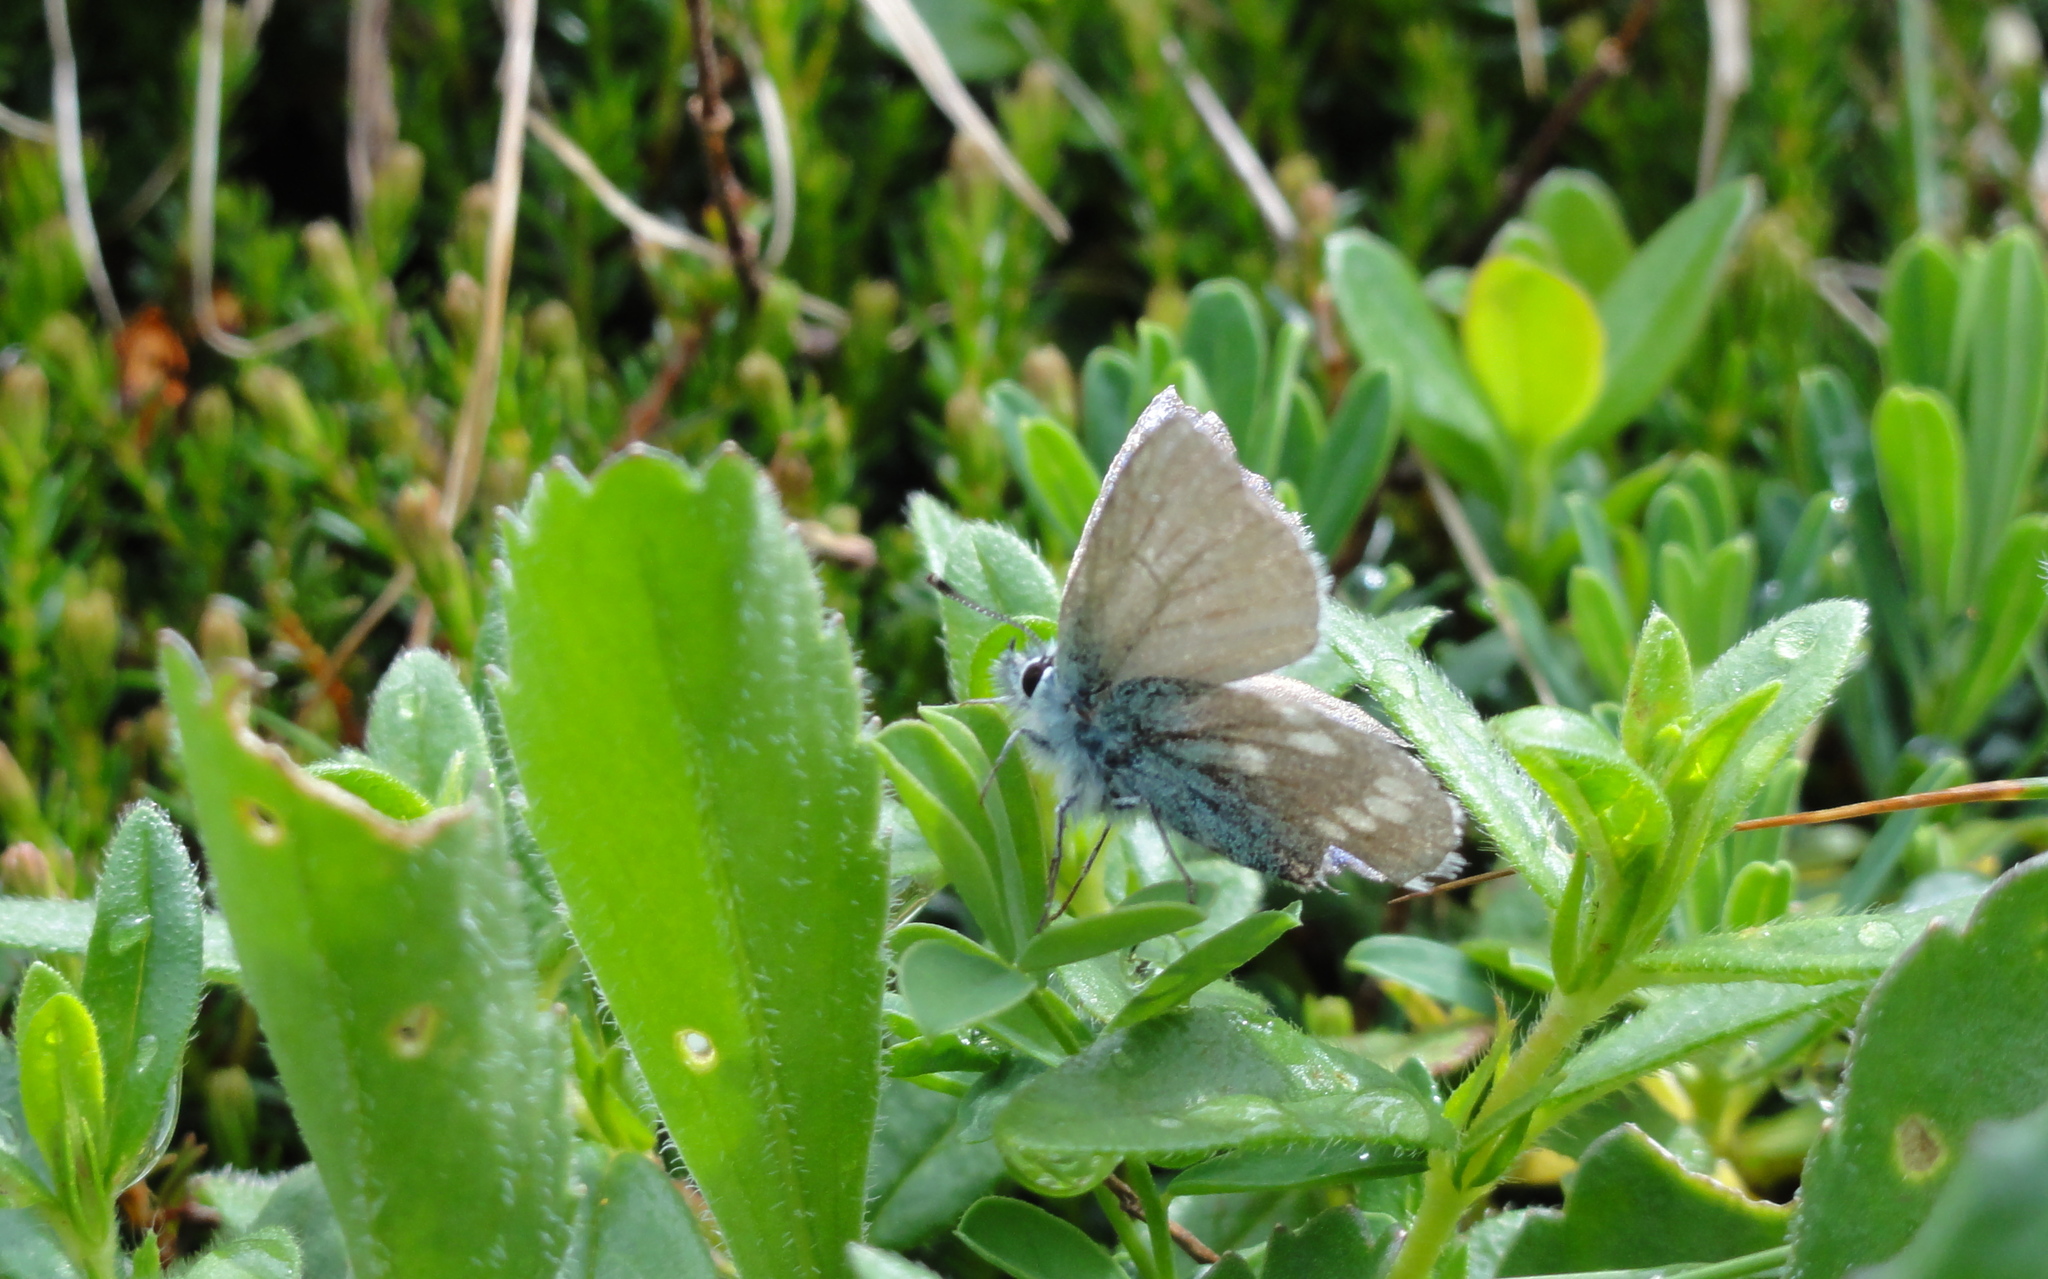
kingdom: Animalia
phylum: Arthropoda
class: Insecta
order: Lepidoptera
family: Lycaenidae
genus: Albulina
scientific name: Albulina orbitulus
